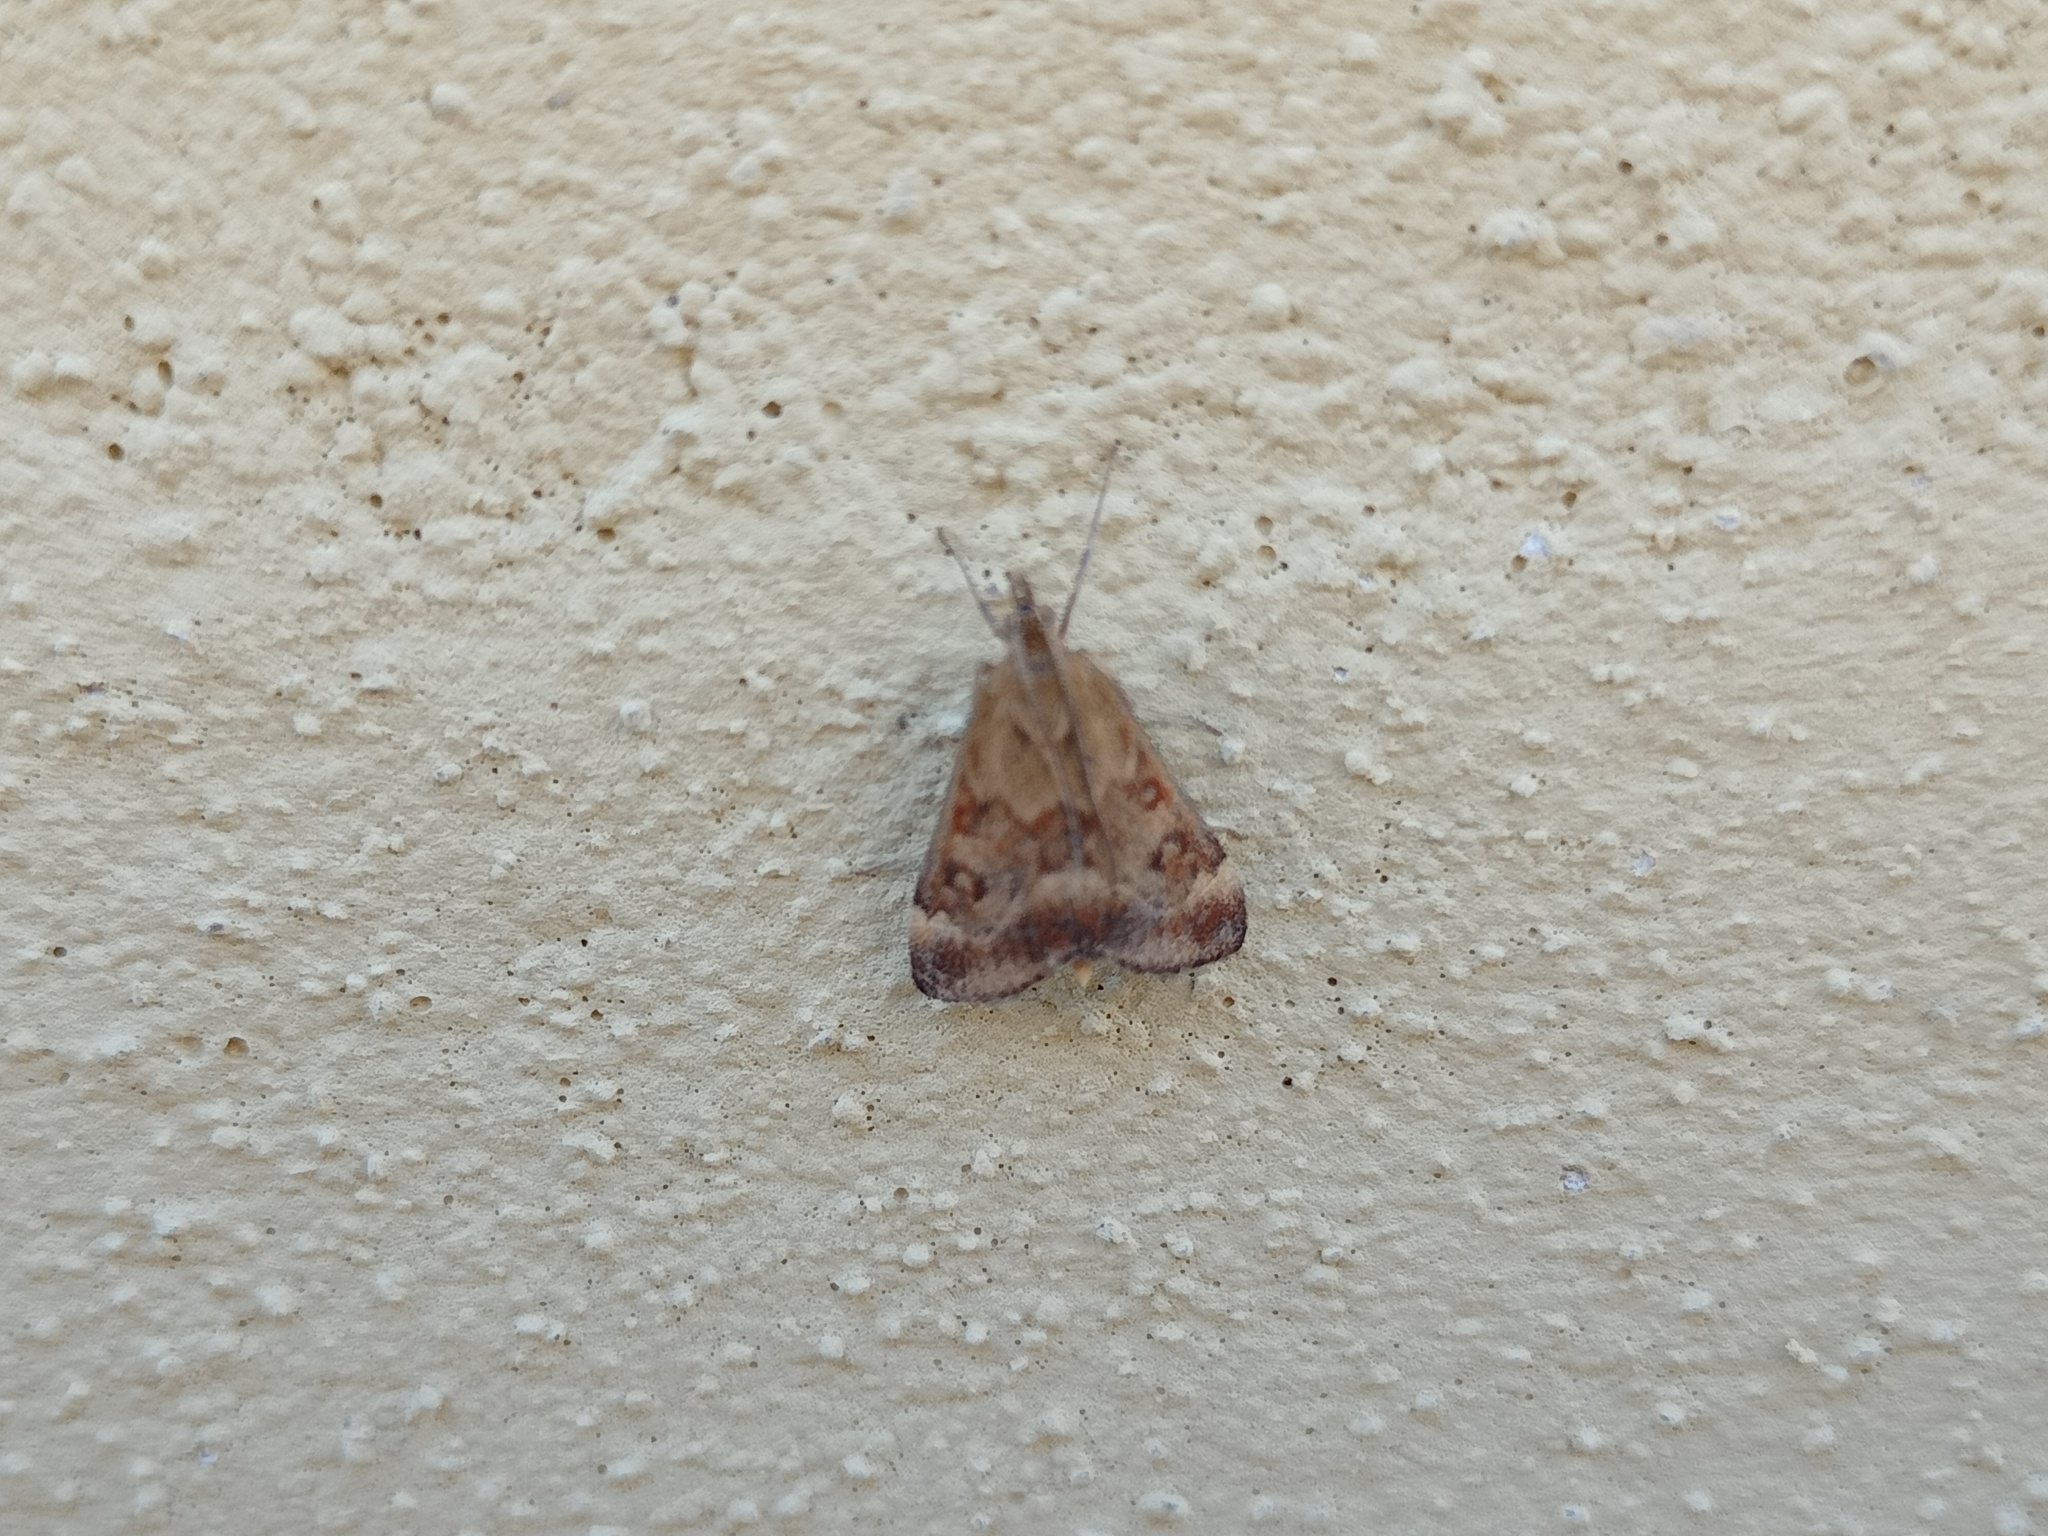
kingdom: Animalia
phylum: Arthropoda
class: Insecta
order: Lepidoptera
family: Crambidae
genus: Pyrausta
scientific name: Pyrausta despicata
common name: Straw-barred pearl
